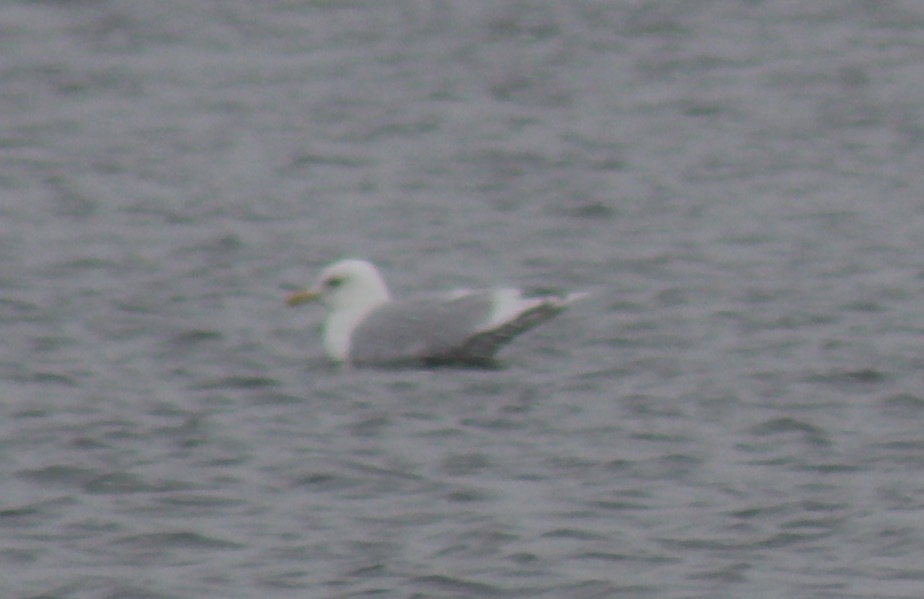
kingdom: Animalia
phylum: Chordata
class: Aves
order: Charadriiformes
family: Laridae
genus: Larus
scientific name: Larus glaucoides
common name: Iceland gull
